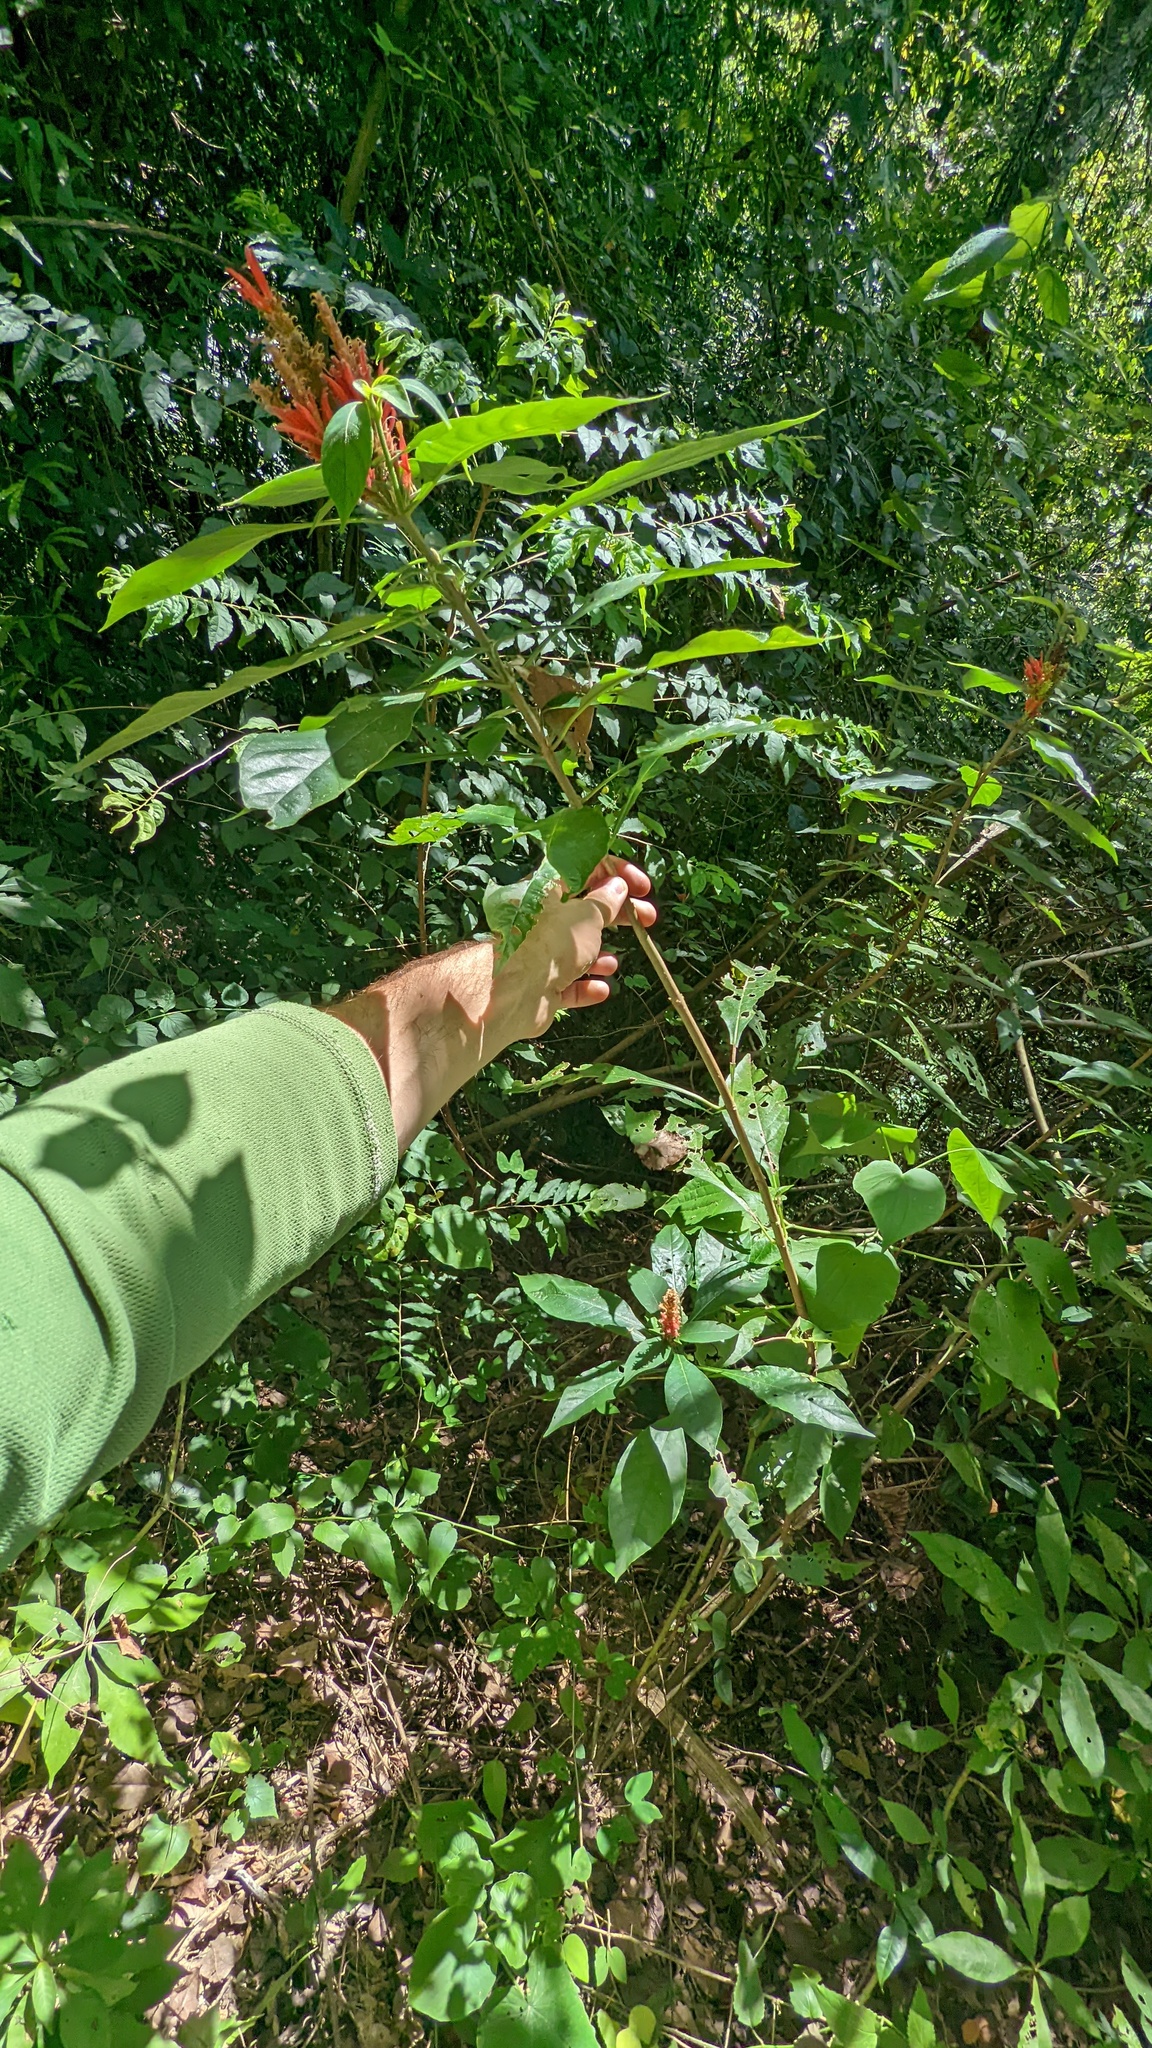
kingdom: Plantae
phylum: Tracheophyta
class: Magnoliopsida
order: Lamiales
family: Acanthaceae
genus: Aphelandra
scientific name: Aphelandra scabra
